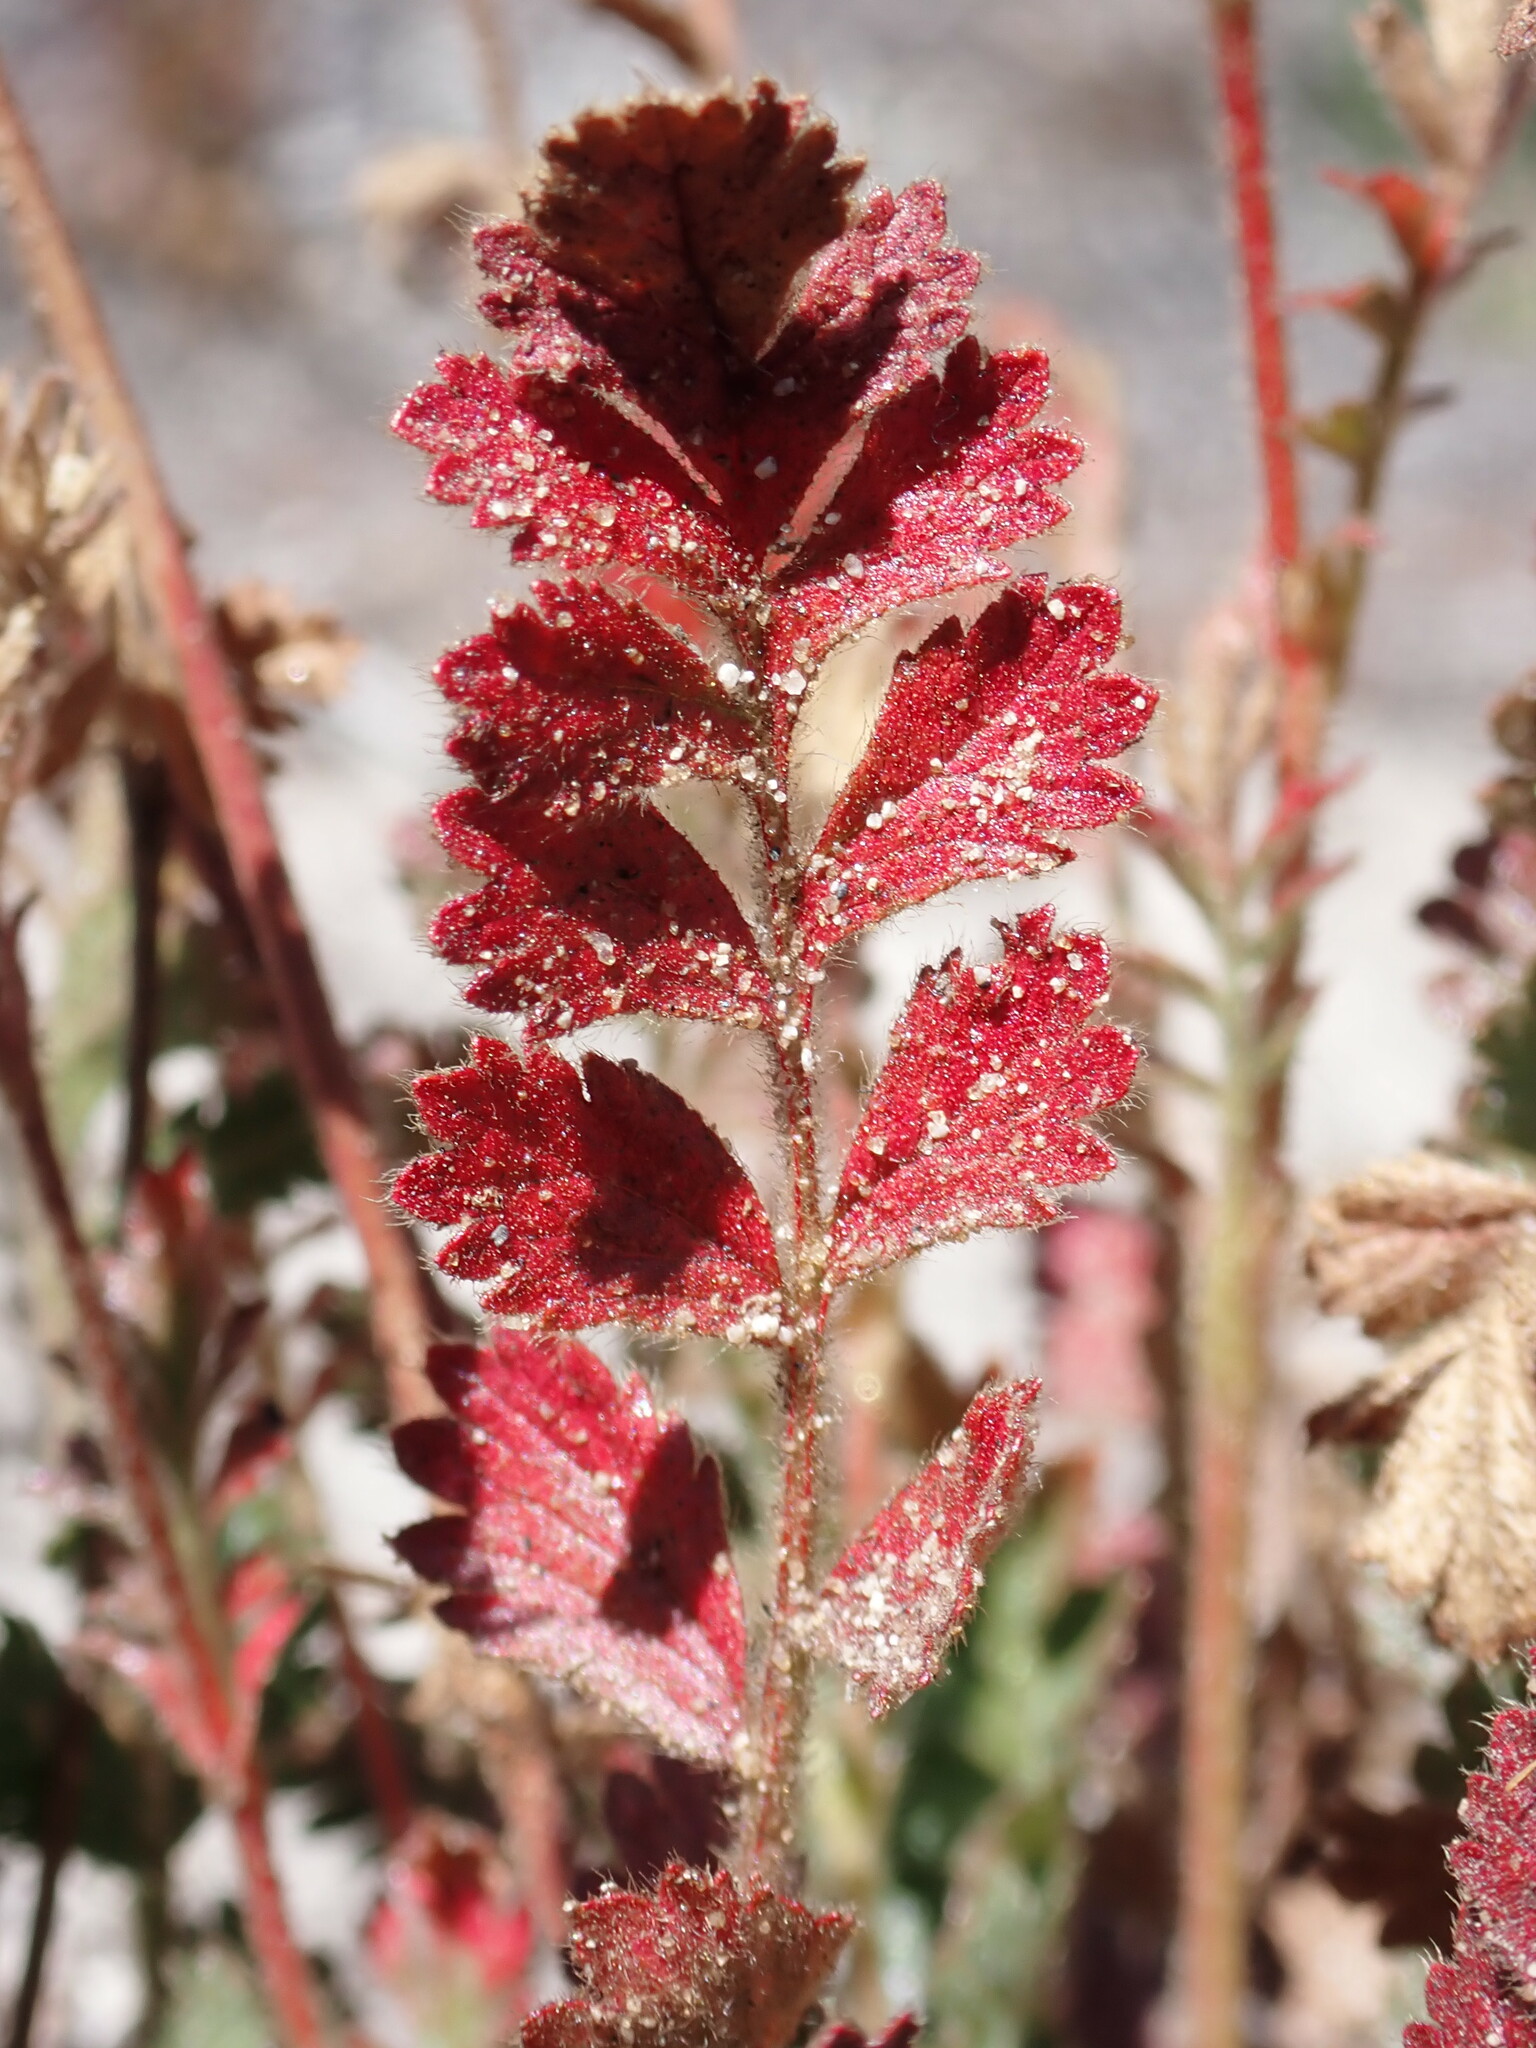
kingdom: Plantae
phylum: Tracheophyta
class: Magnoliopsida
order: Rosales
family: Rosaceae
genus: Potentilla
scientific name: Potentilla
